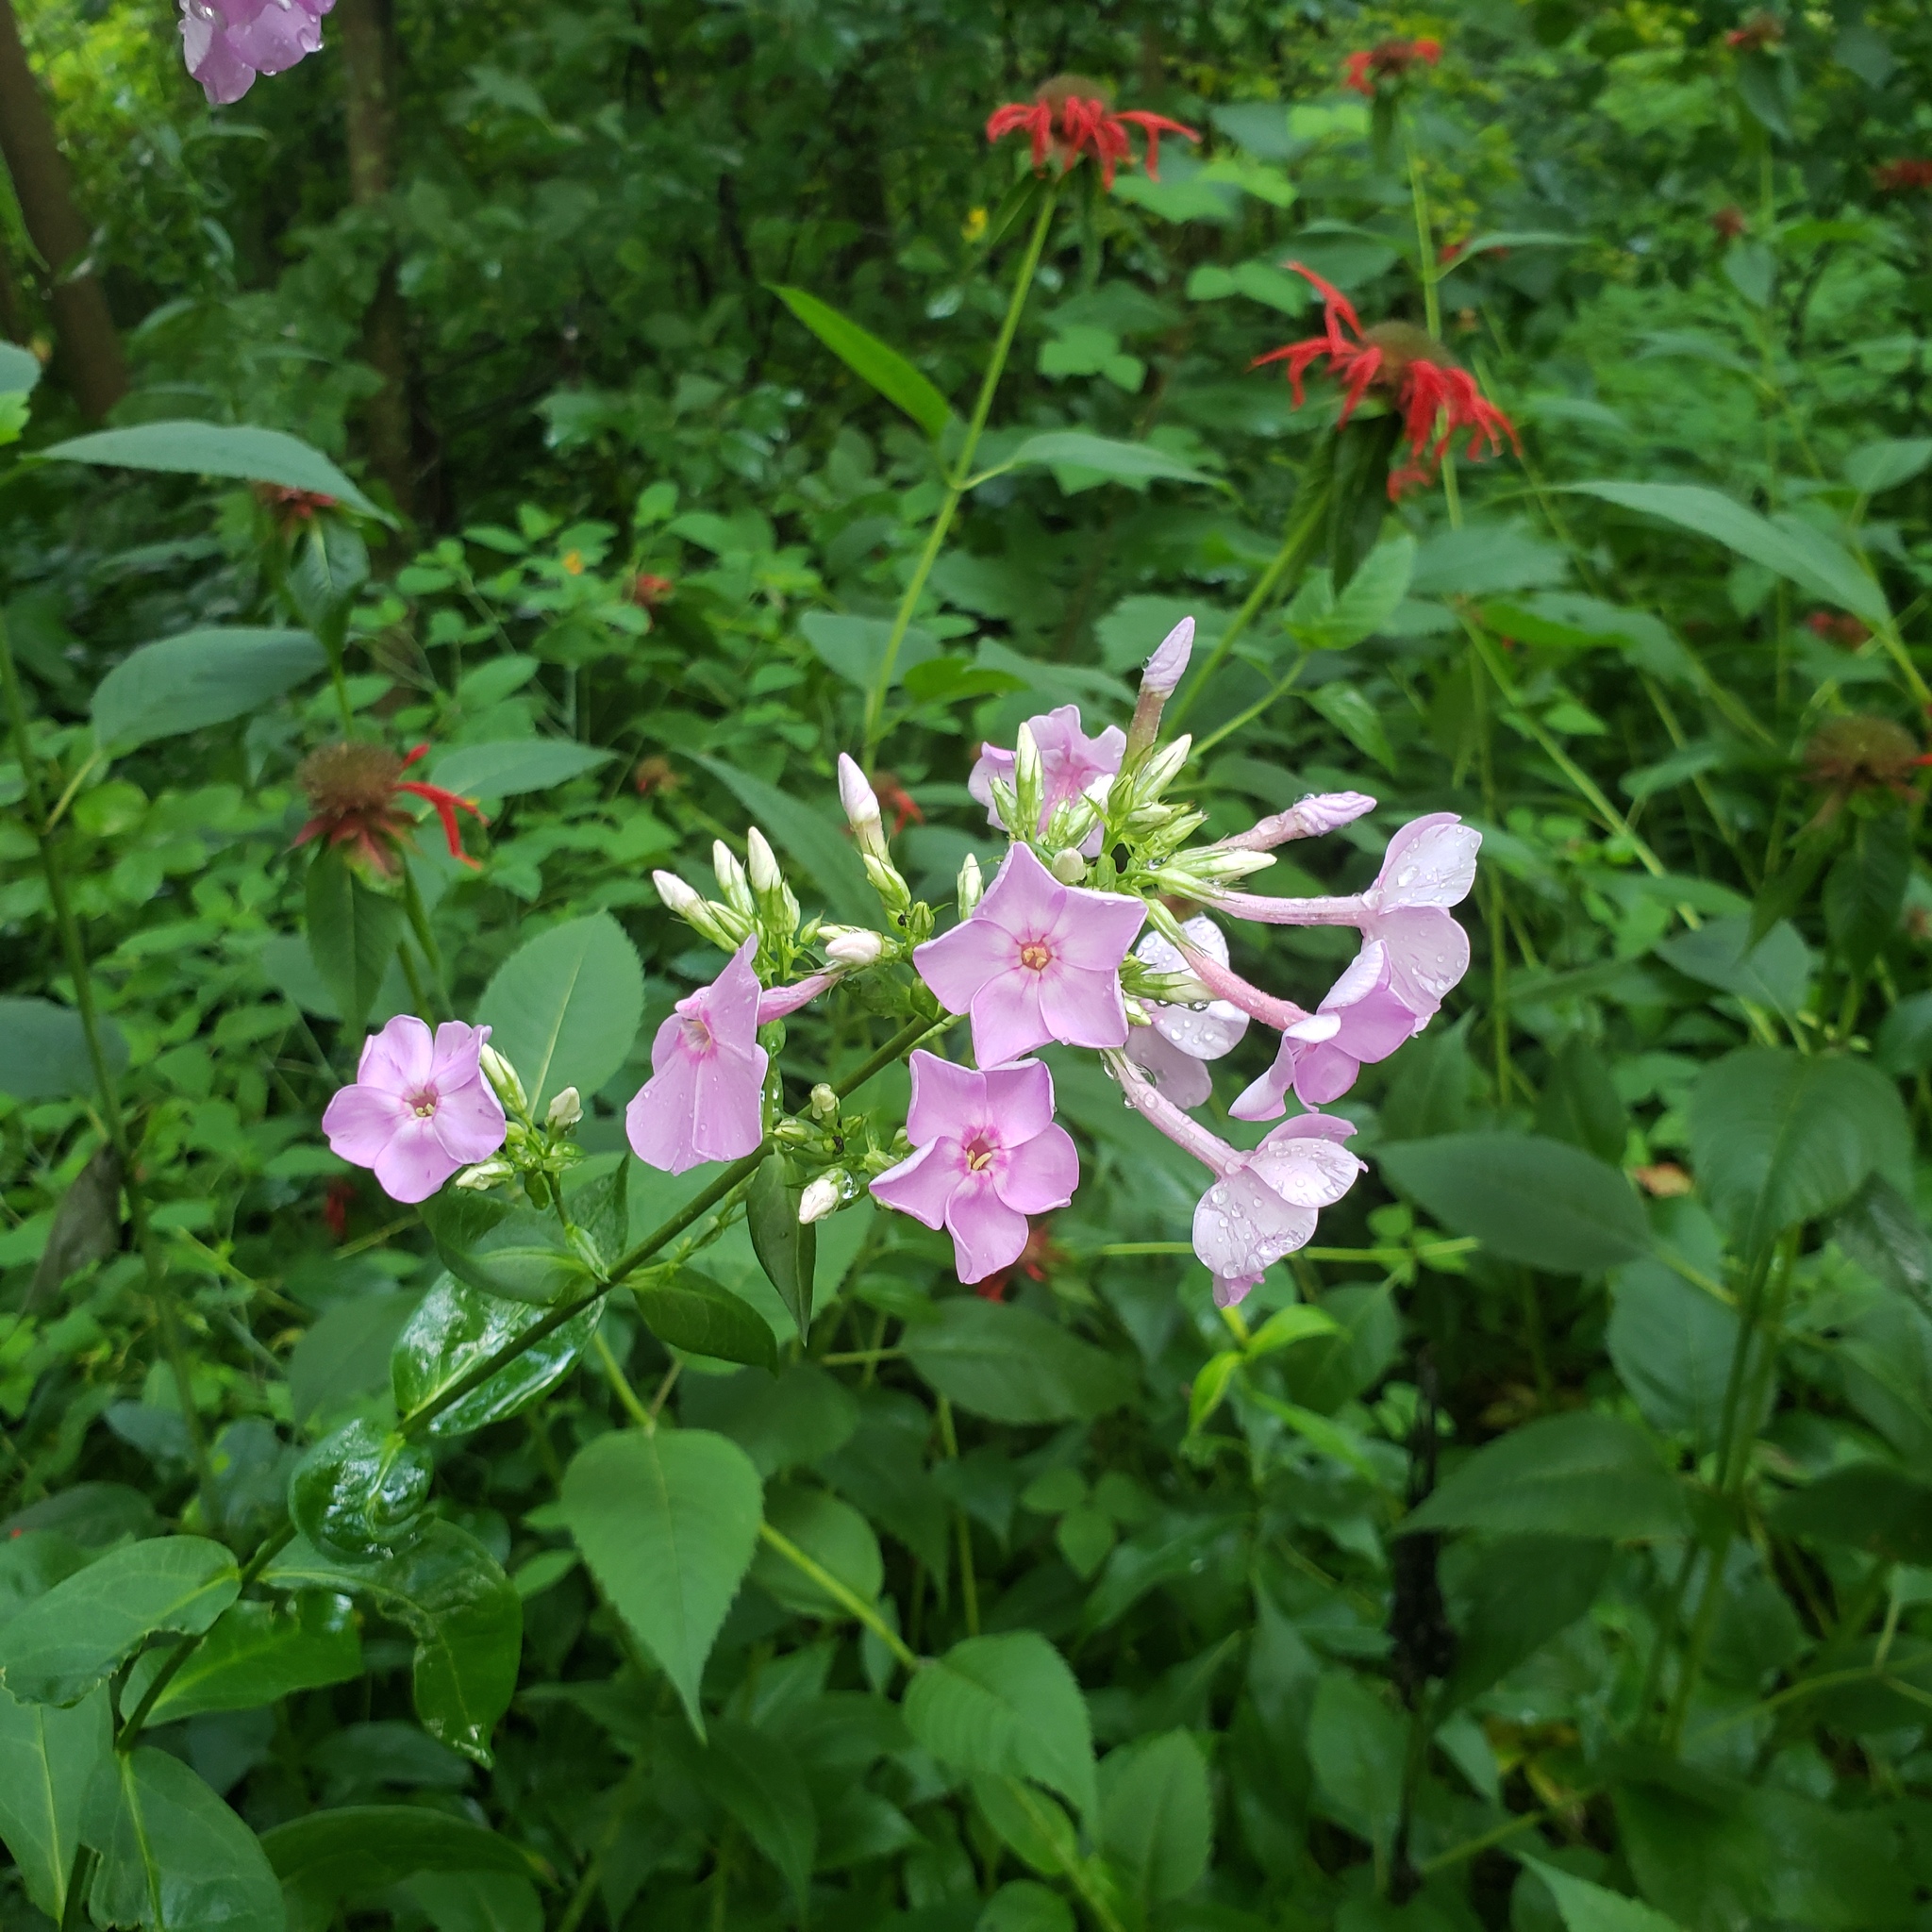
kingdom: Plantae
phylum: Tracheophyta
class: Magnoliopsida
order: Ericales
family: Polemoniaceae
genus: Phlox
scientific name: Phlox paniculata
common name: Fall phlox
